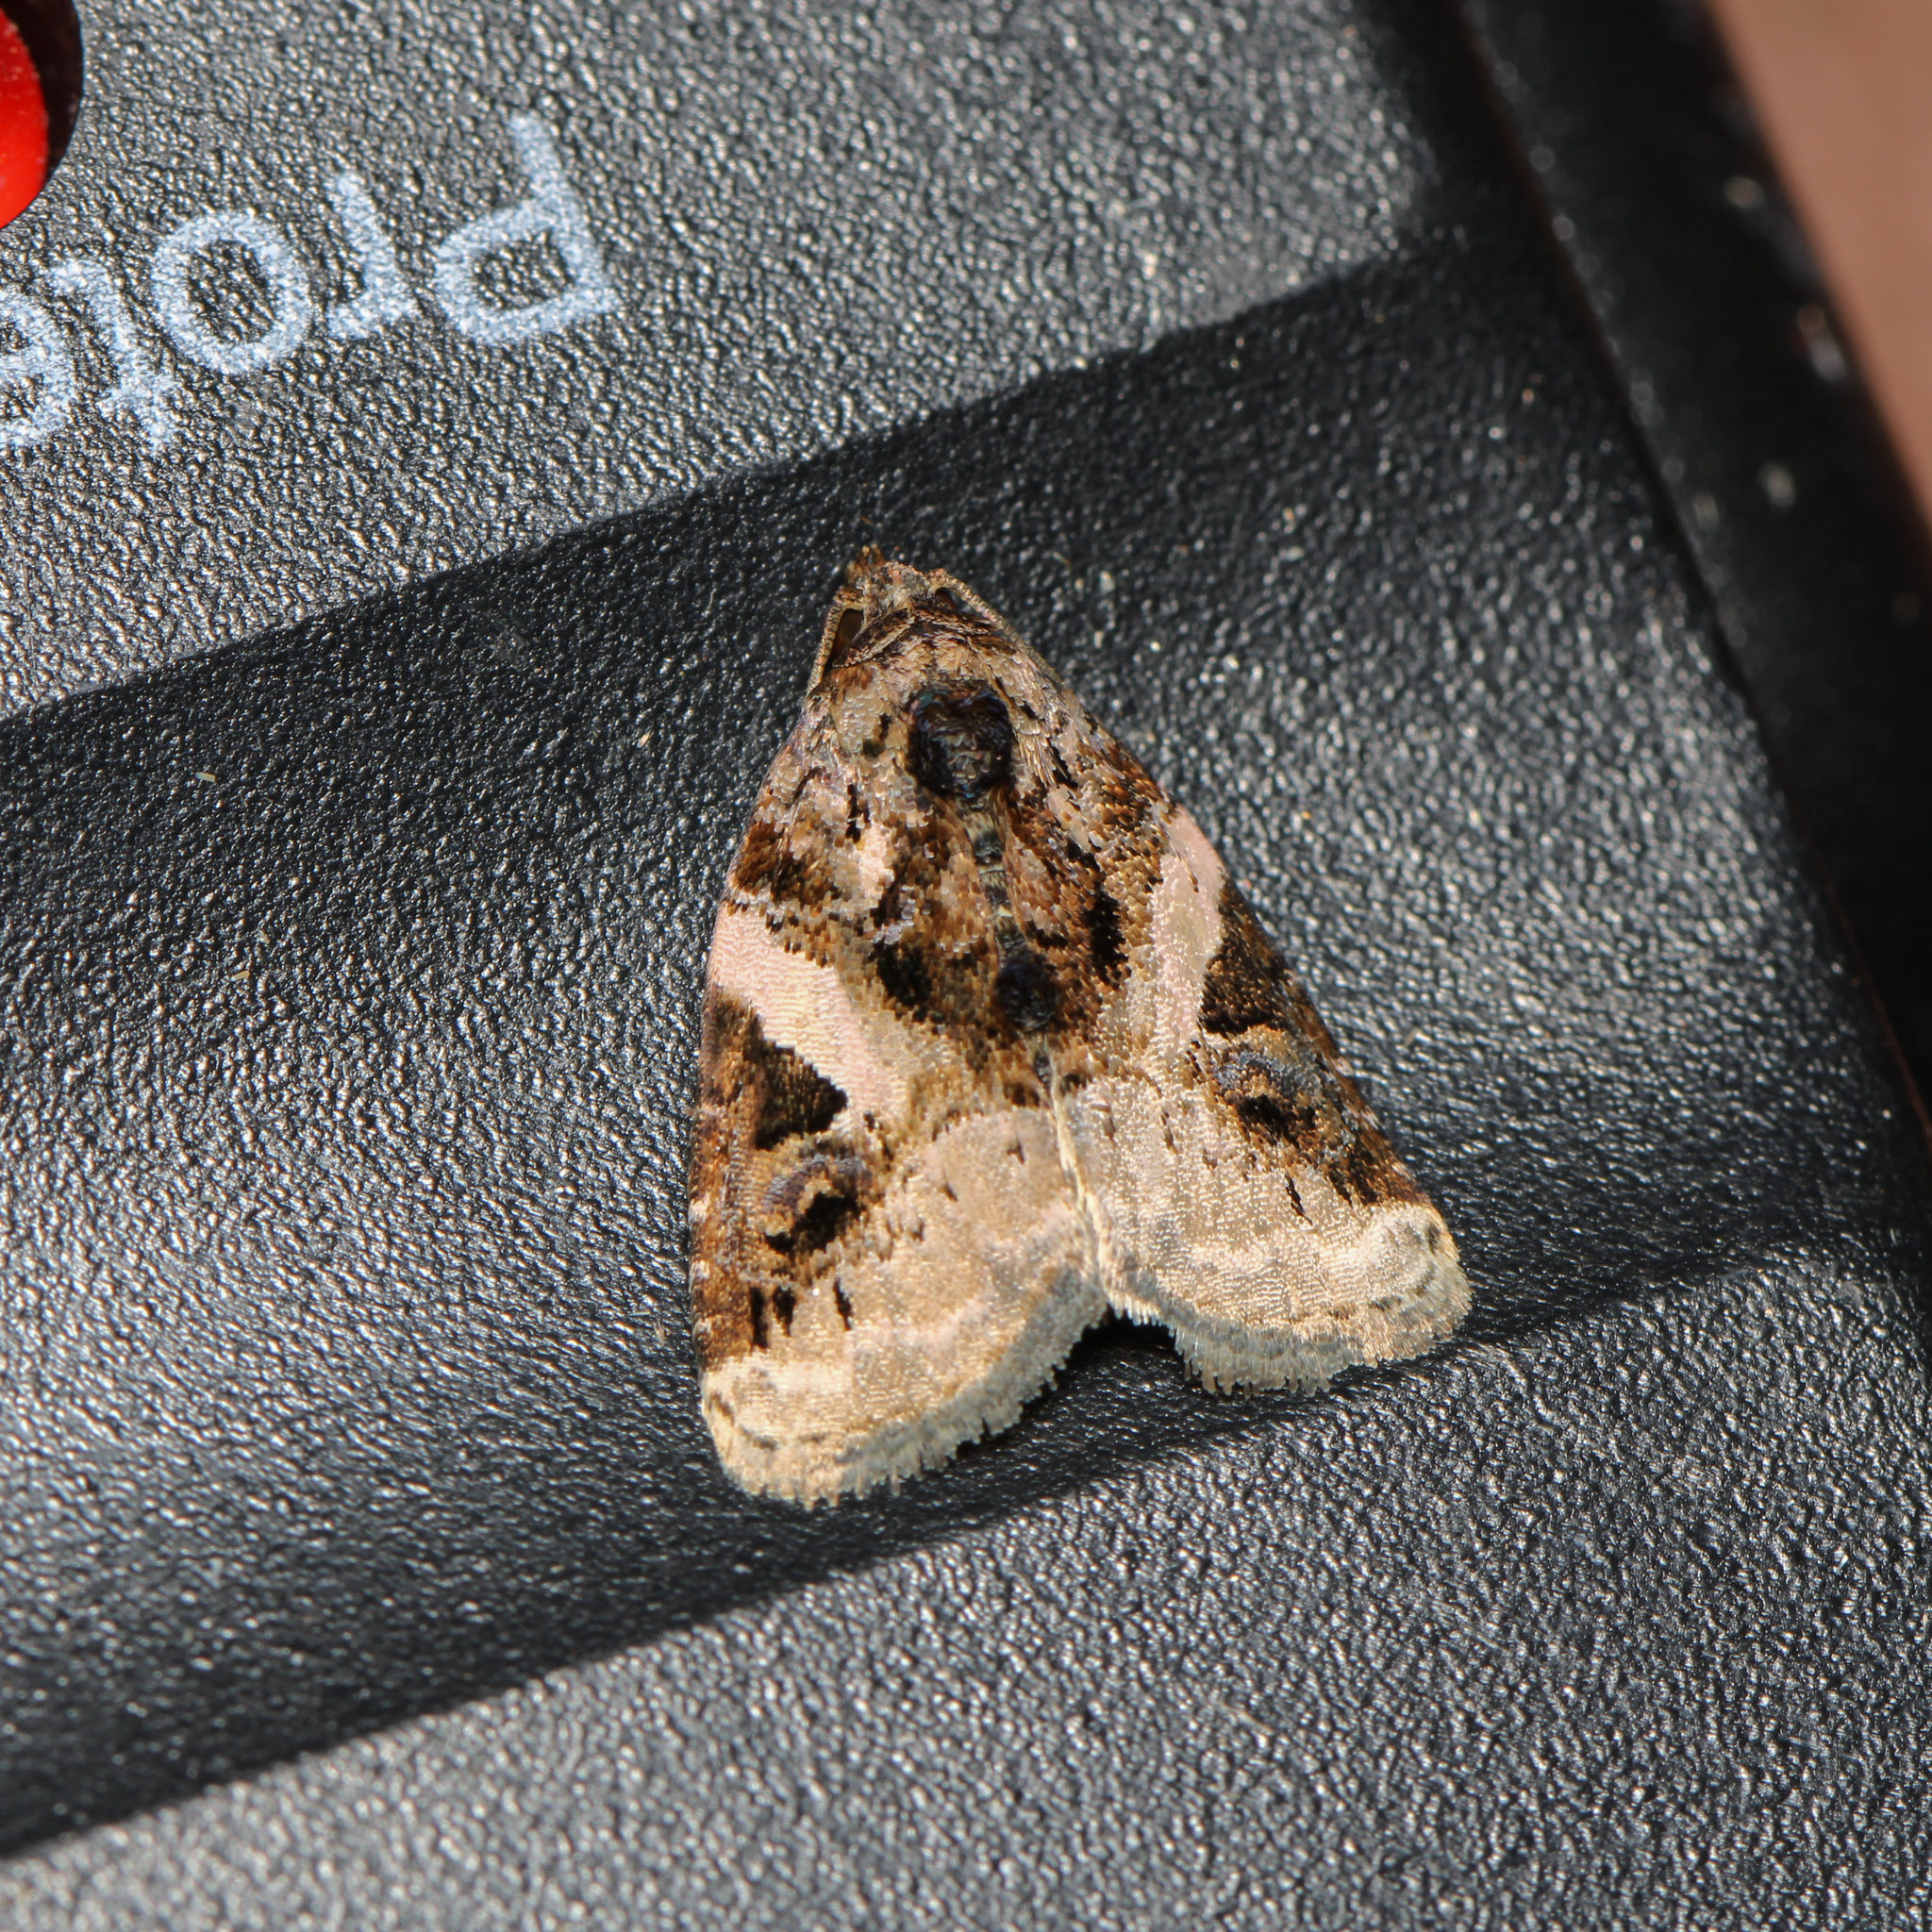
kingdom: Animalia
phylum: Arthropoda
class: Insecta
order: Lepidoptera
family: Noctuidae
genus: Pseudeustrotia
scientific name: Pseudeustrotia carneola
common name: Pink-barred lithacodia moth
